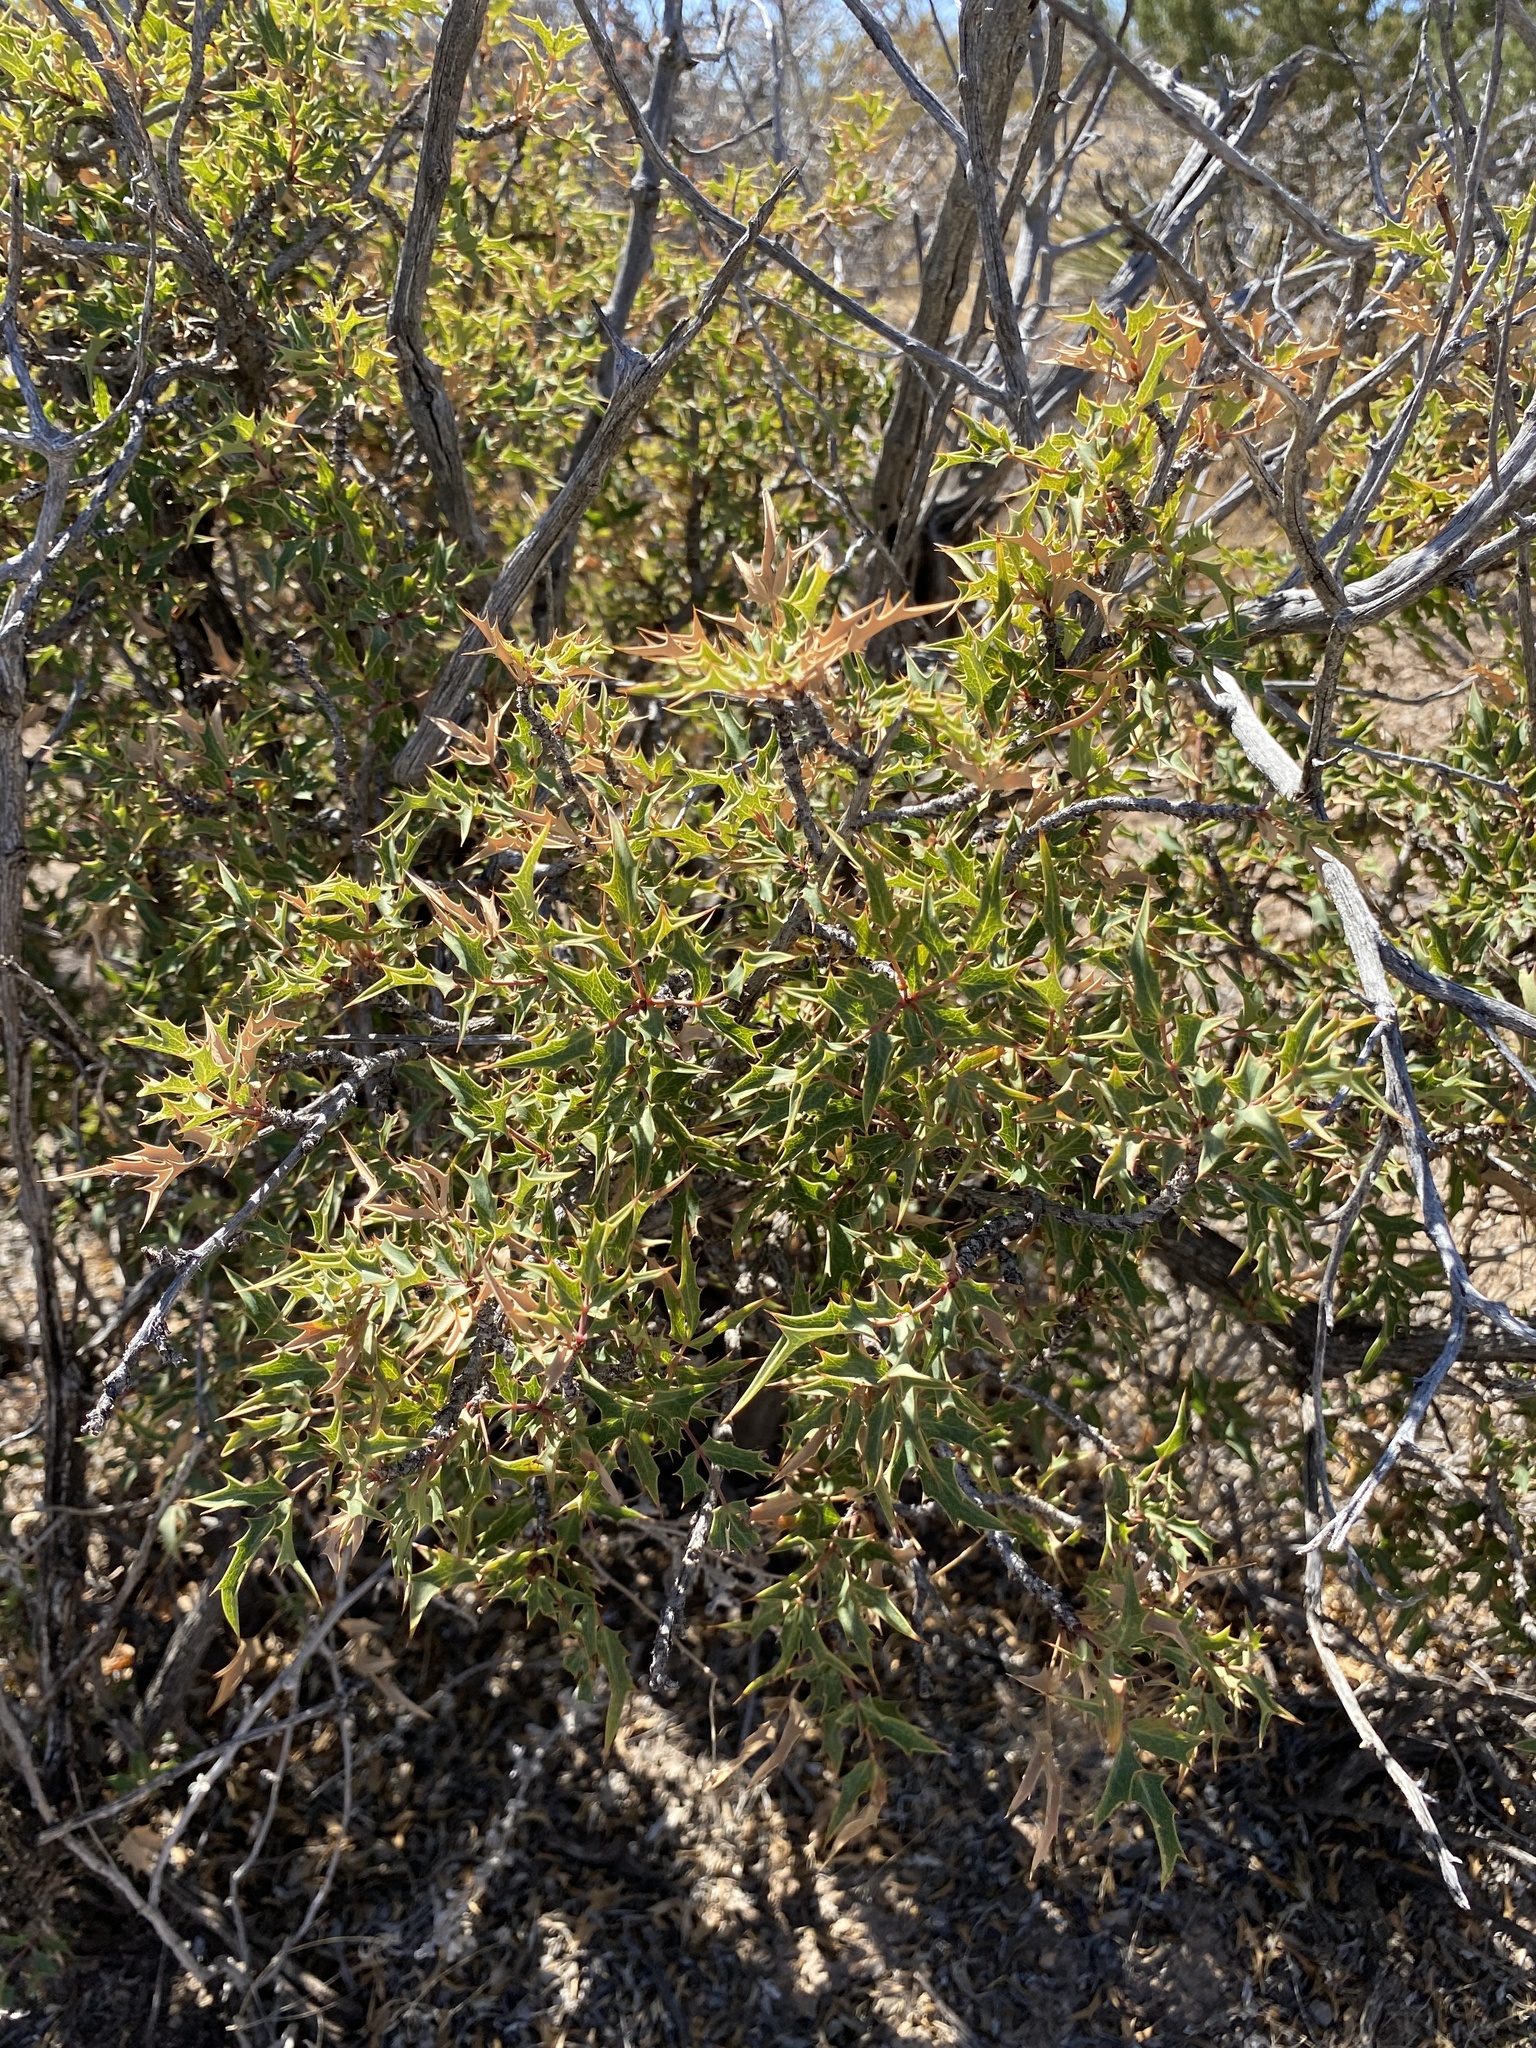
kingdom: Plantae
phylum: Tracheophyta
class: Magnoliopsida
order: Ranunculales
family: Berberidaceae
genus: Alloberberis
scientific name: Alloberberis haematocarpa
